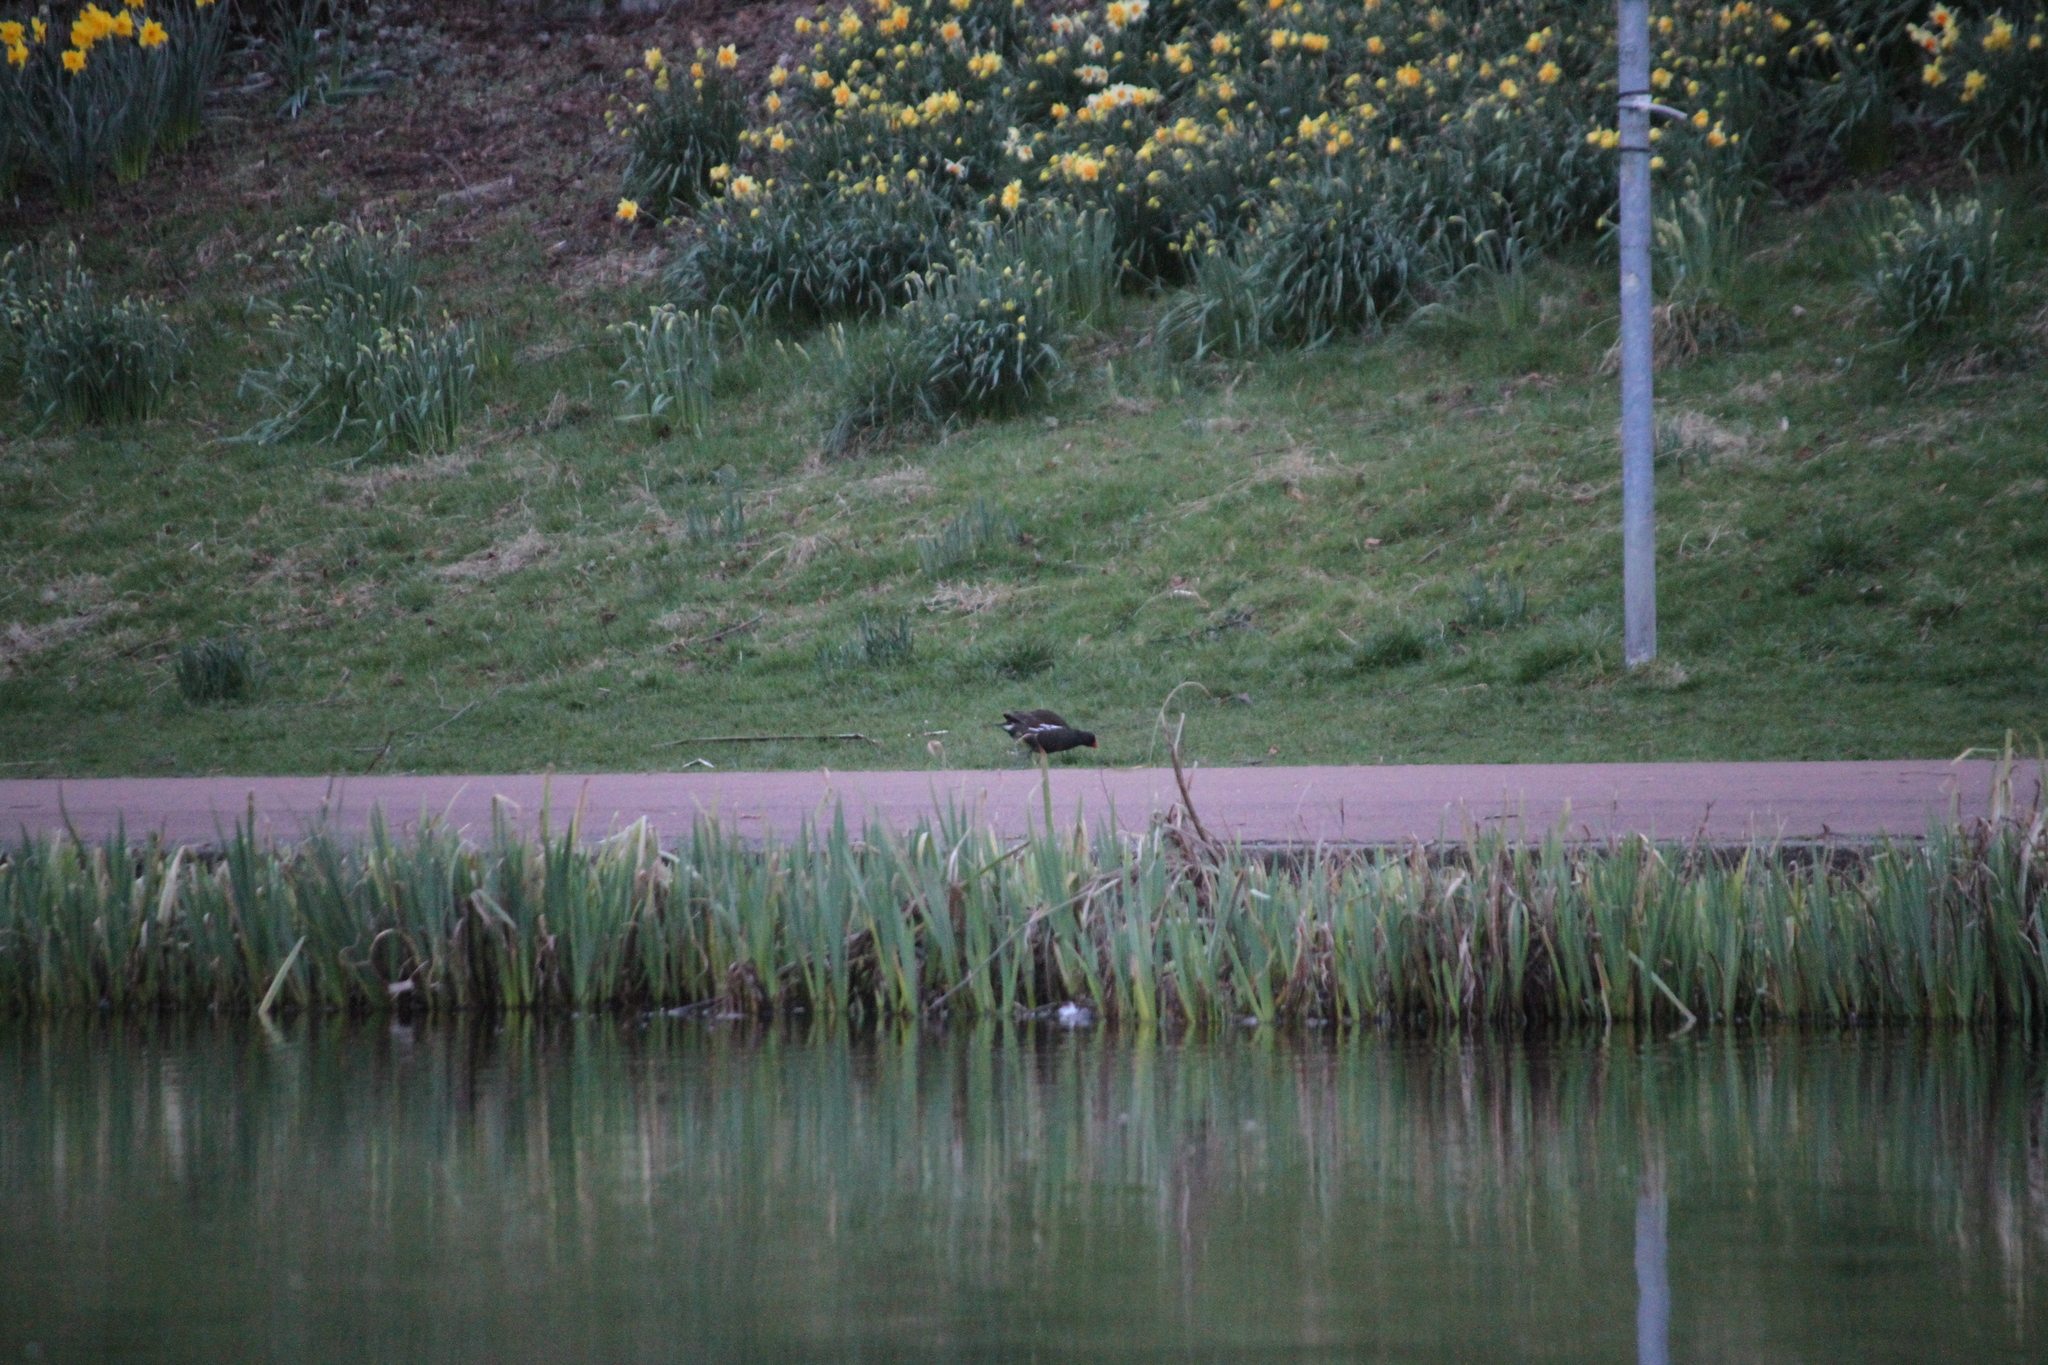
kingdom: Animalia
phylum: Chordata
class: Aves
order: Gruiformes
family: Rallidae
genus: Gallinula
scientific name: Gallinula chloropus
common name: Common moorhen
